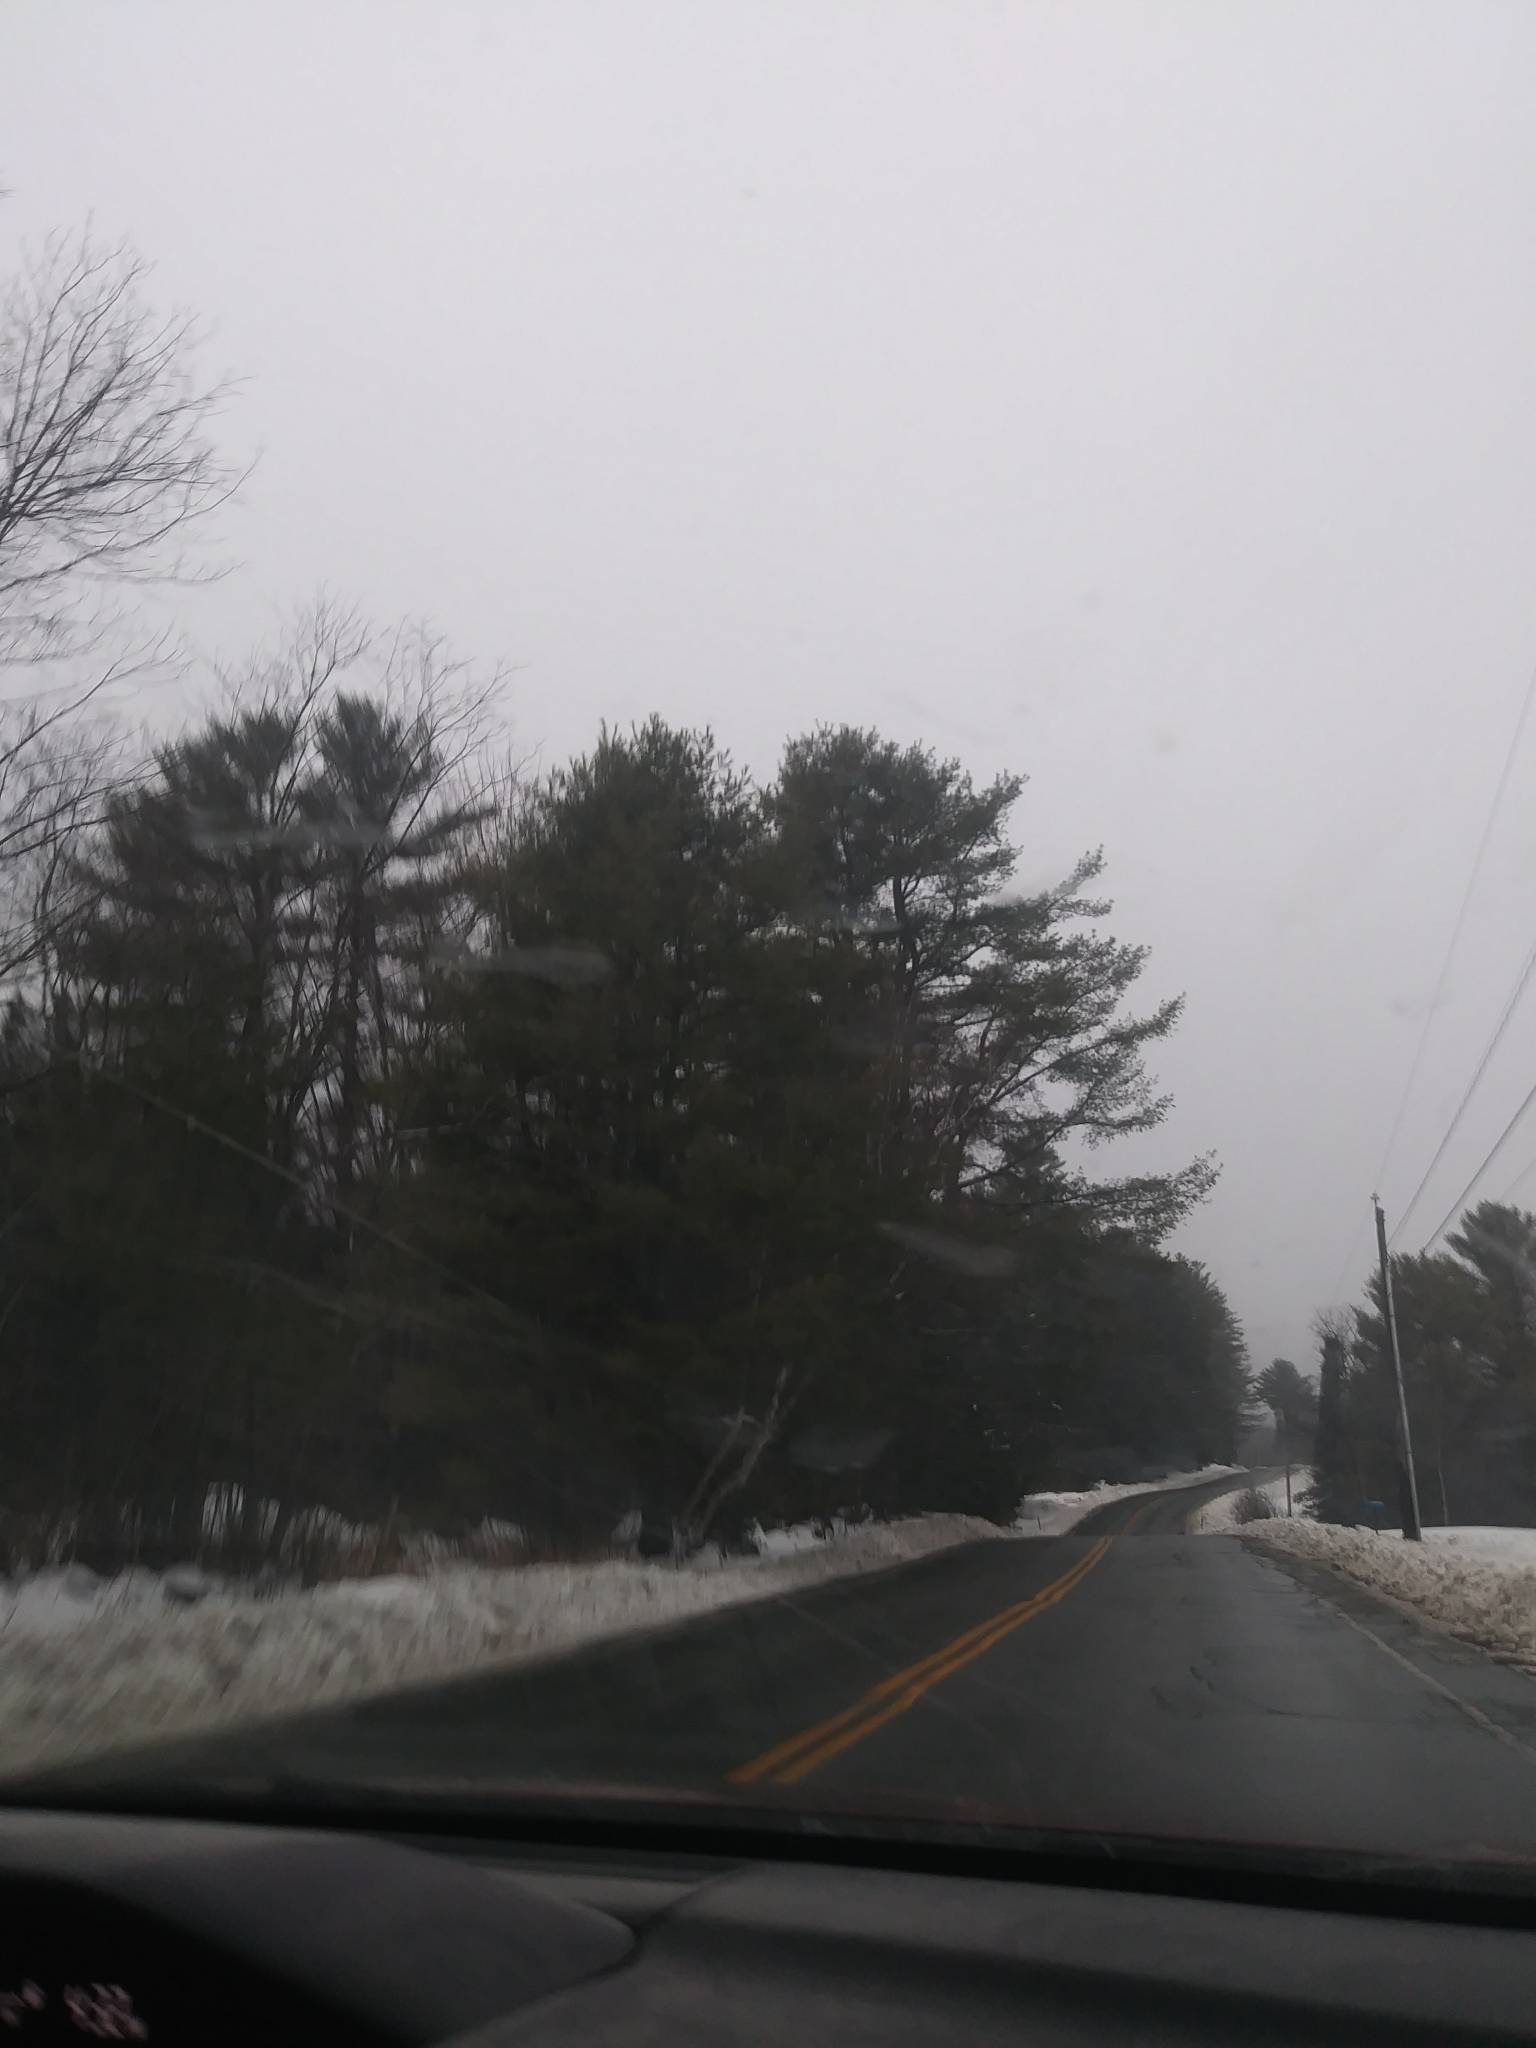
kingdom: Plantae
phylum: Tracheophyta
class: Pinopsida
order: Pinales
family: Pinaceae
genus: Pinus
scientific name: Pinus strobus
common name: Weymouth pine
